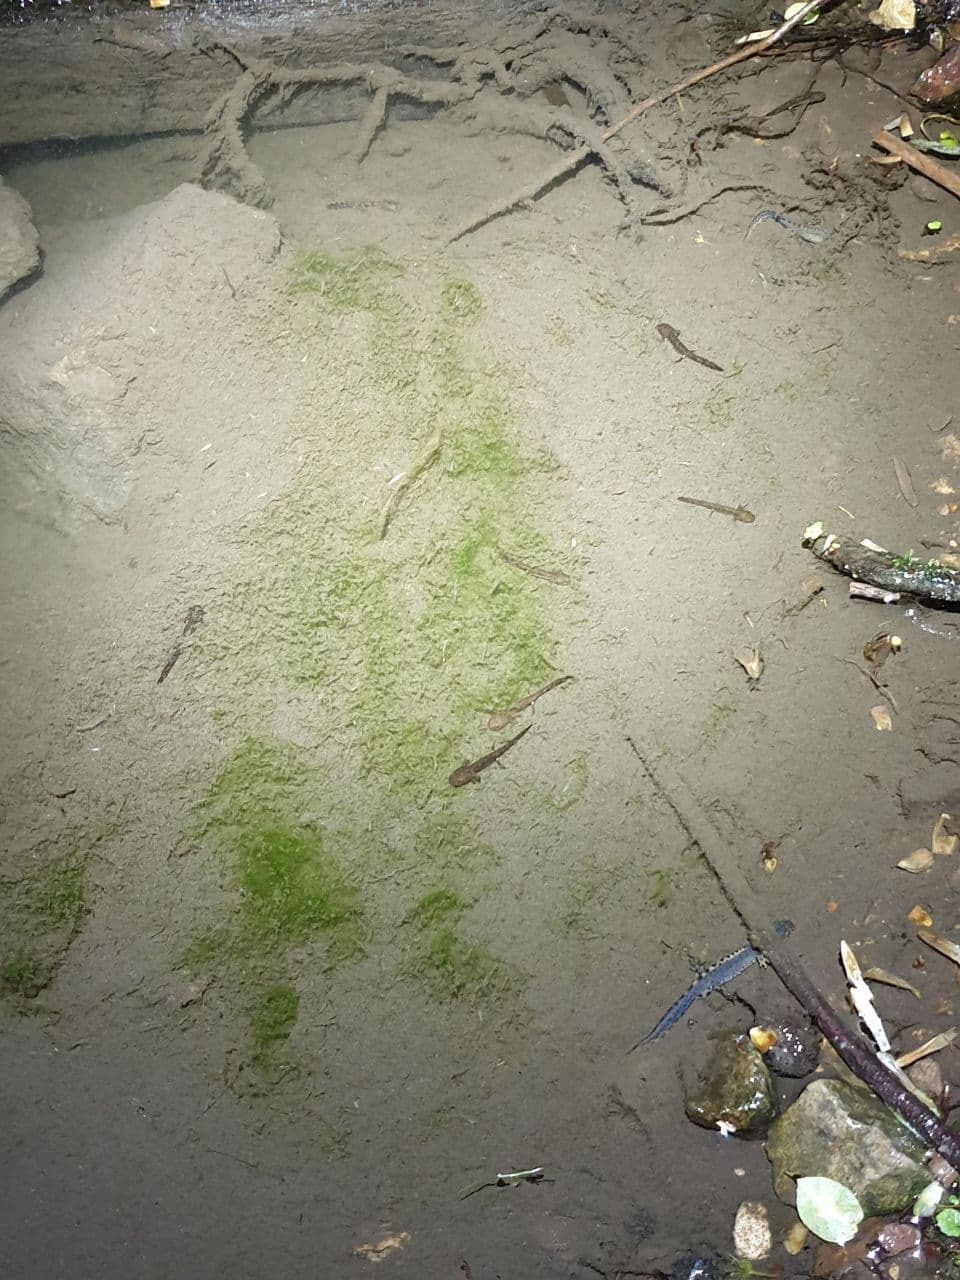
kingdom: Animalia
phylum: Chordata
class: Amphibia
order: Caudata
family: Salamandridae
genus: Ichthyosaura
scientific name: Ichthyosaura alpestris
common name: Alpine newt
